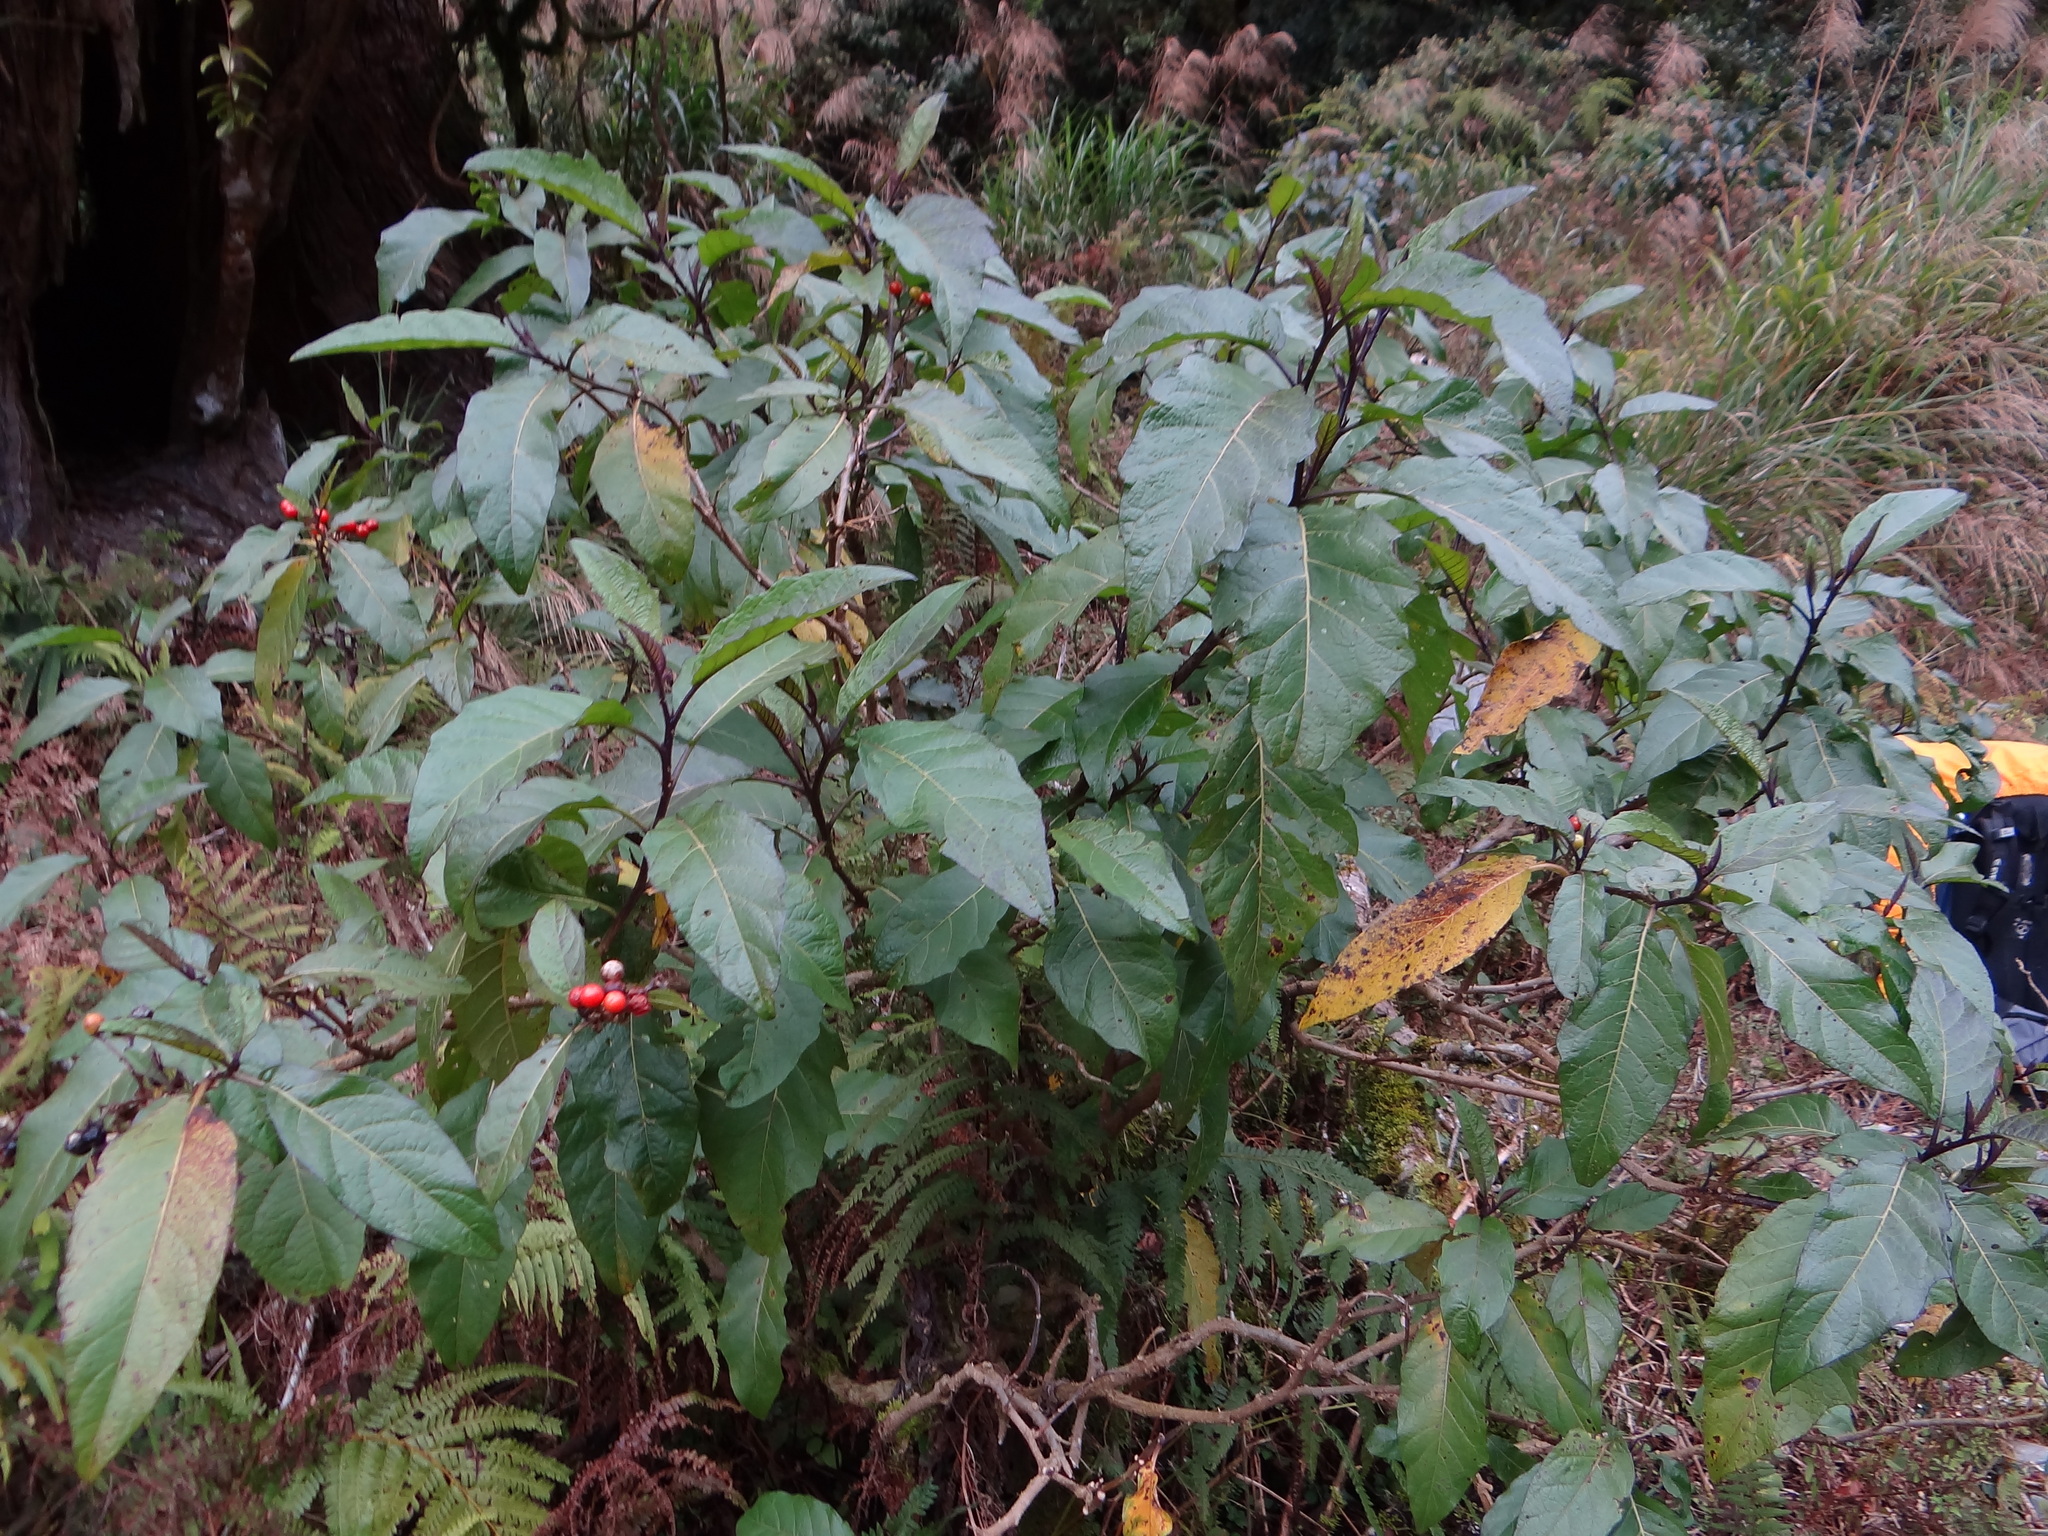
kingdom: Plantae
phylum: Tracheophyta
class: Magnoliopsida
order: Solanales
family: Solanaceae
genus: Solanum
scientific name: Solanum peikuoense
